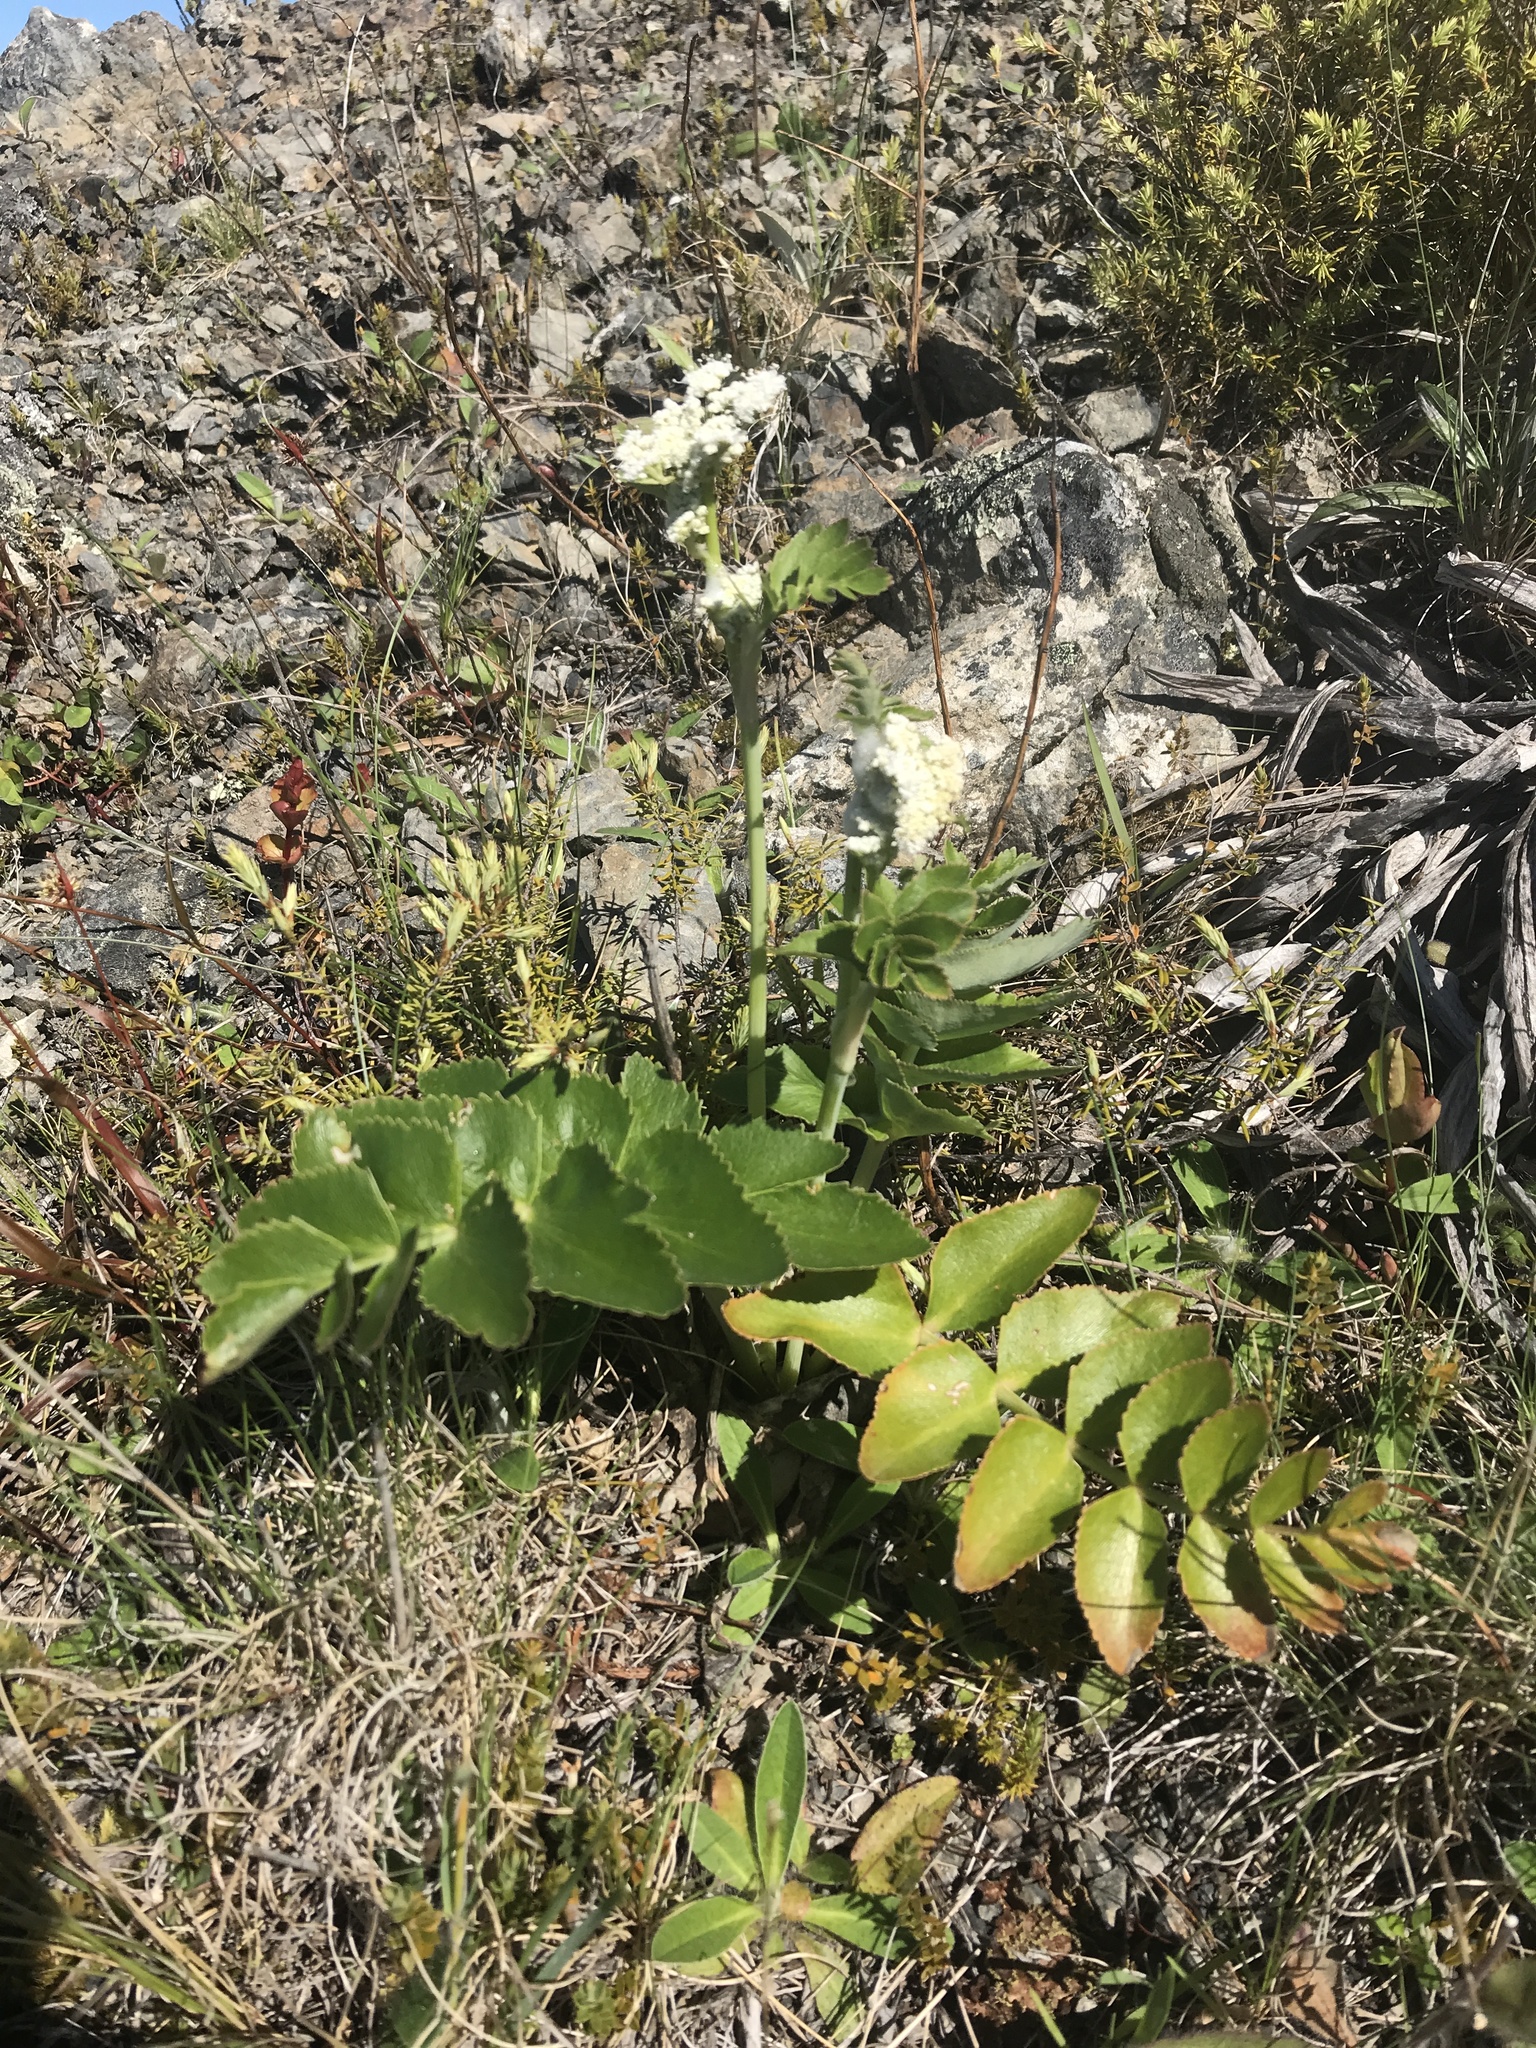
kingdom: Plantae
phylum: Tracheophyta
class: Magnoliopsida
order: Apiales
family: Apiaceae
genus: Gingidia
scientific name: Gingidia montana
